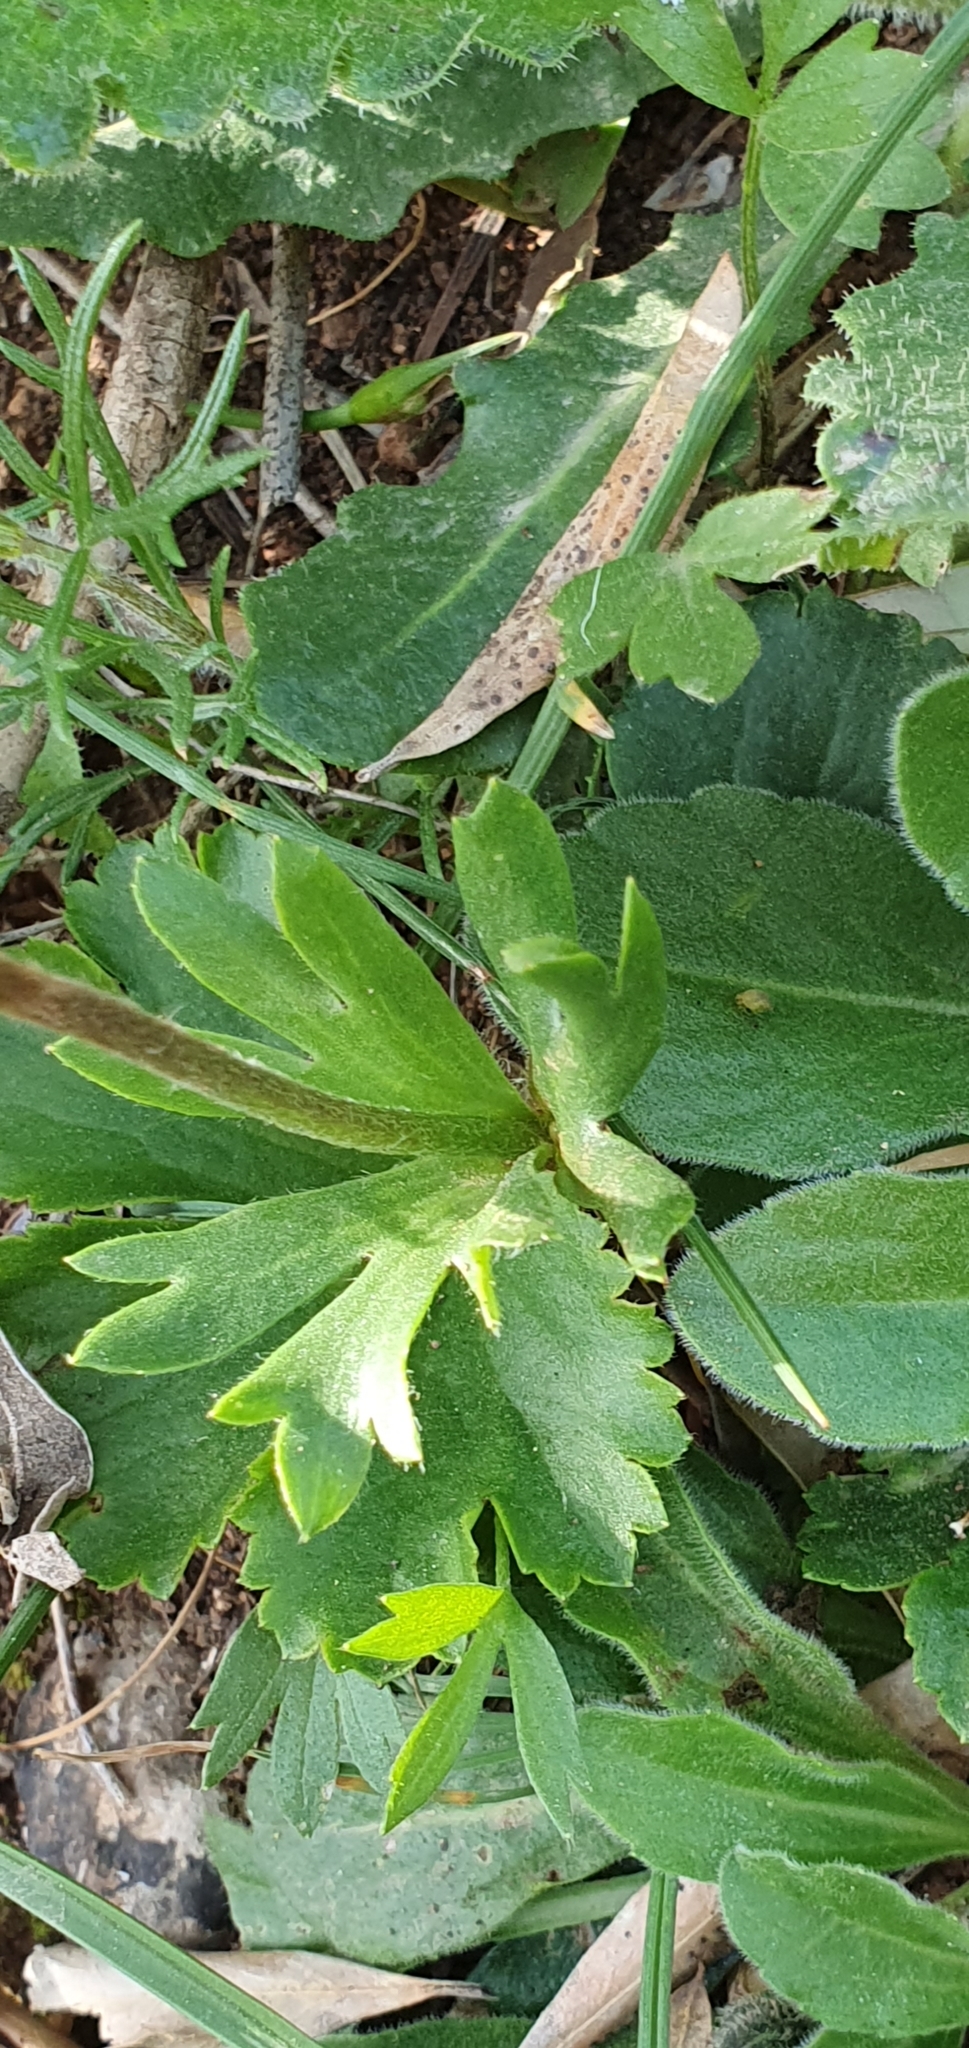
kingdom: Plantae
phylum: Tracheophyta
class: Magnoliopsida
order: Ranunculales
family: Ranunculaceae
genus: Anemone
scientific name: Anemone palmata
